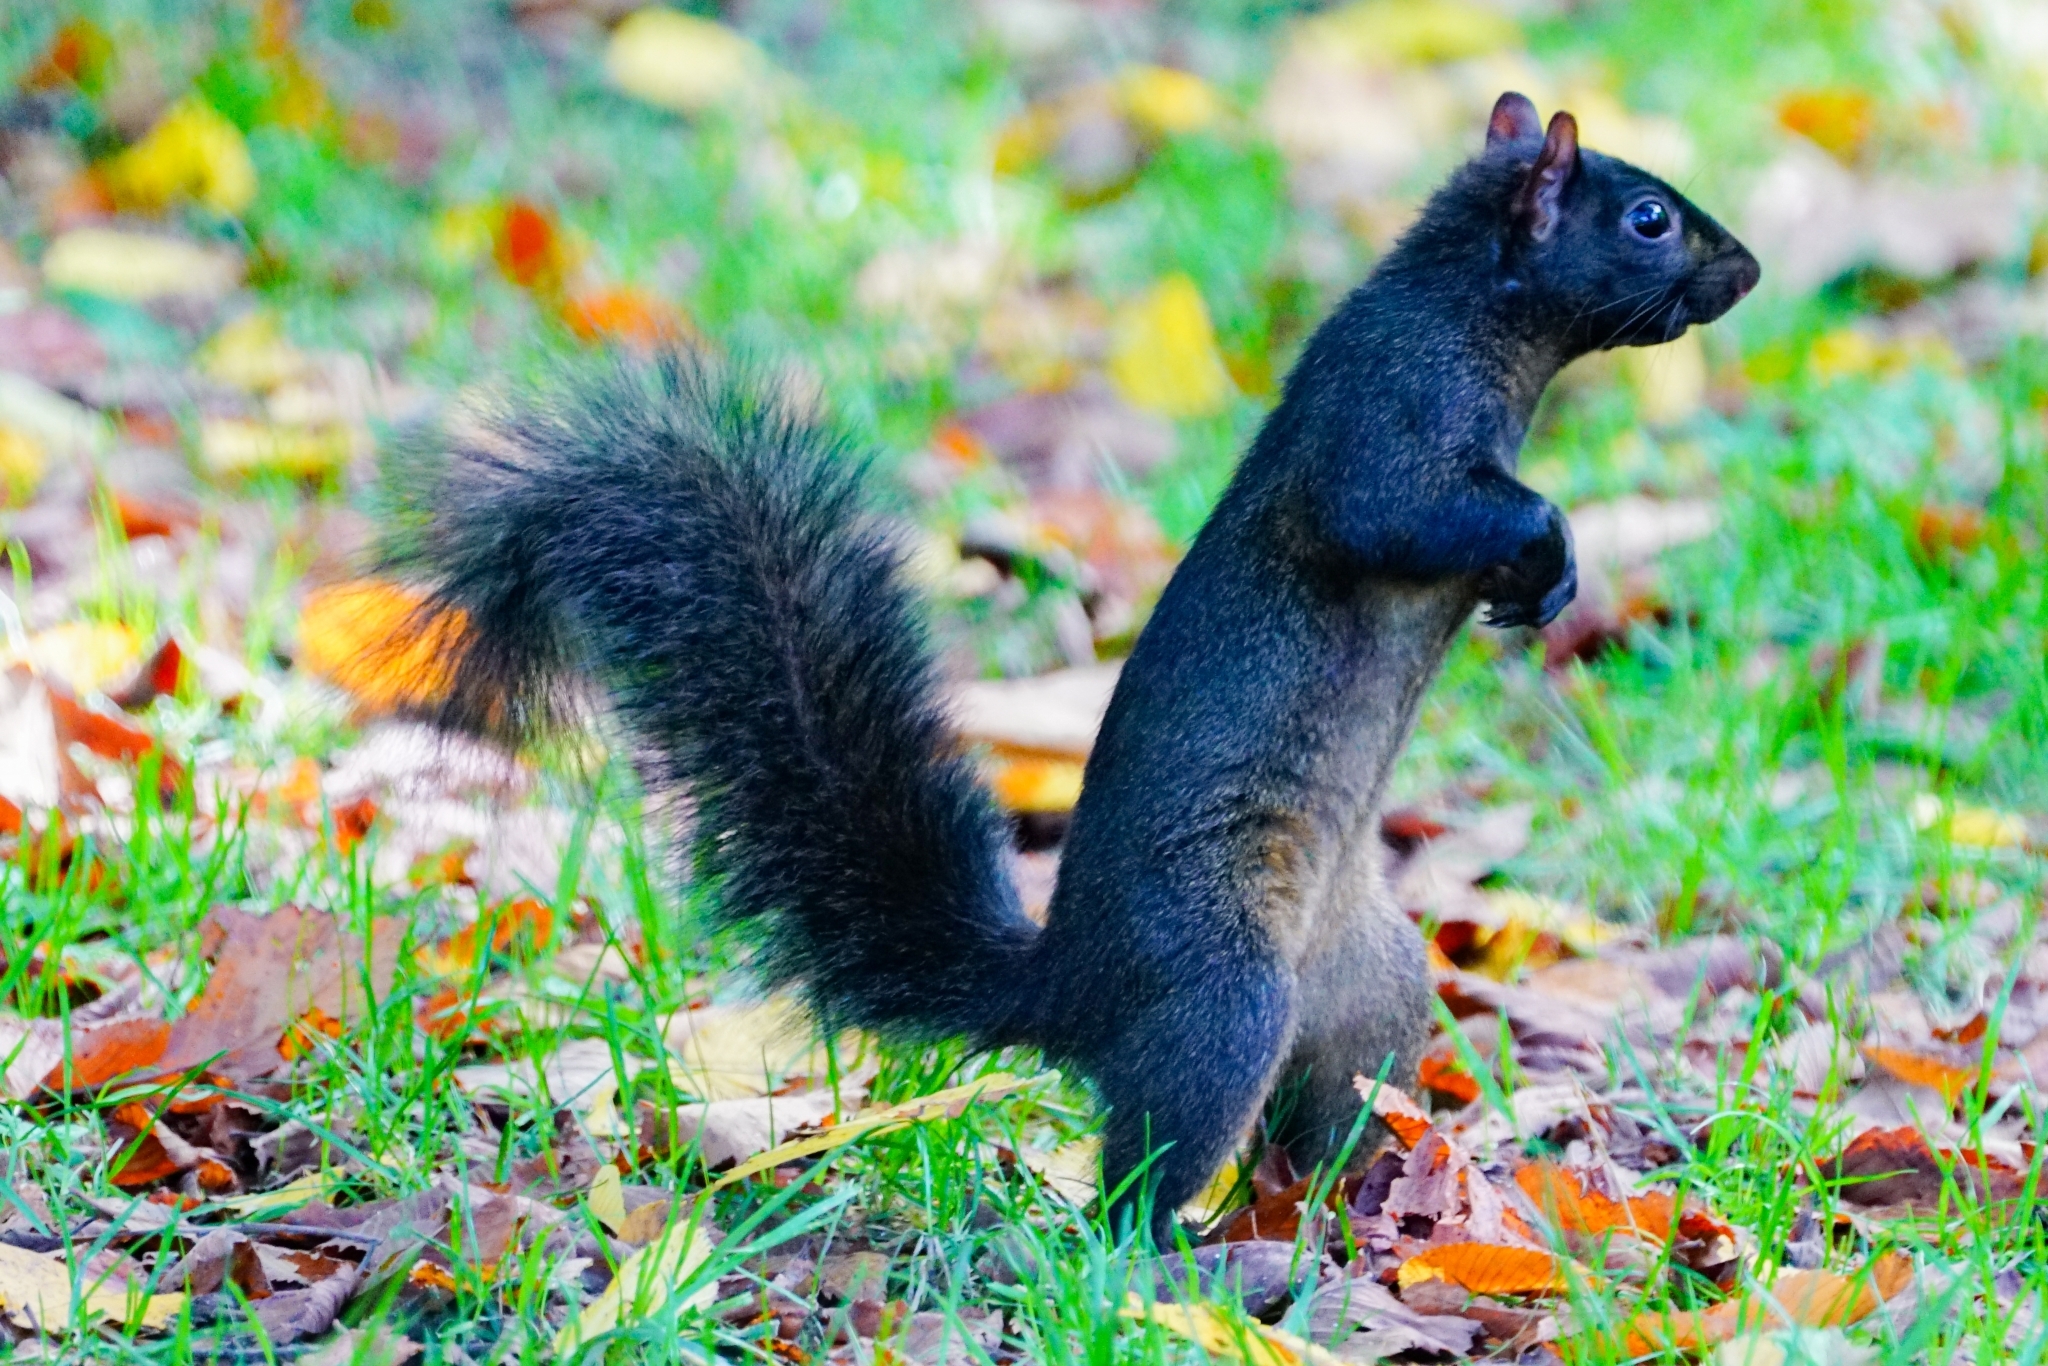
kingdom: Animalia
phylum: Chordata
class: Mammalia
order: Rodentia
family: Sciuridae
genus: Sciurus
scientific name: Sciurus carolinensis
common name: Eastern gray squirrel
